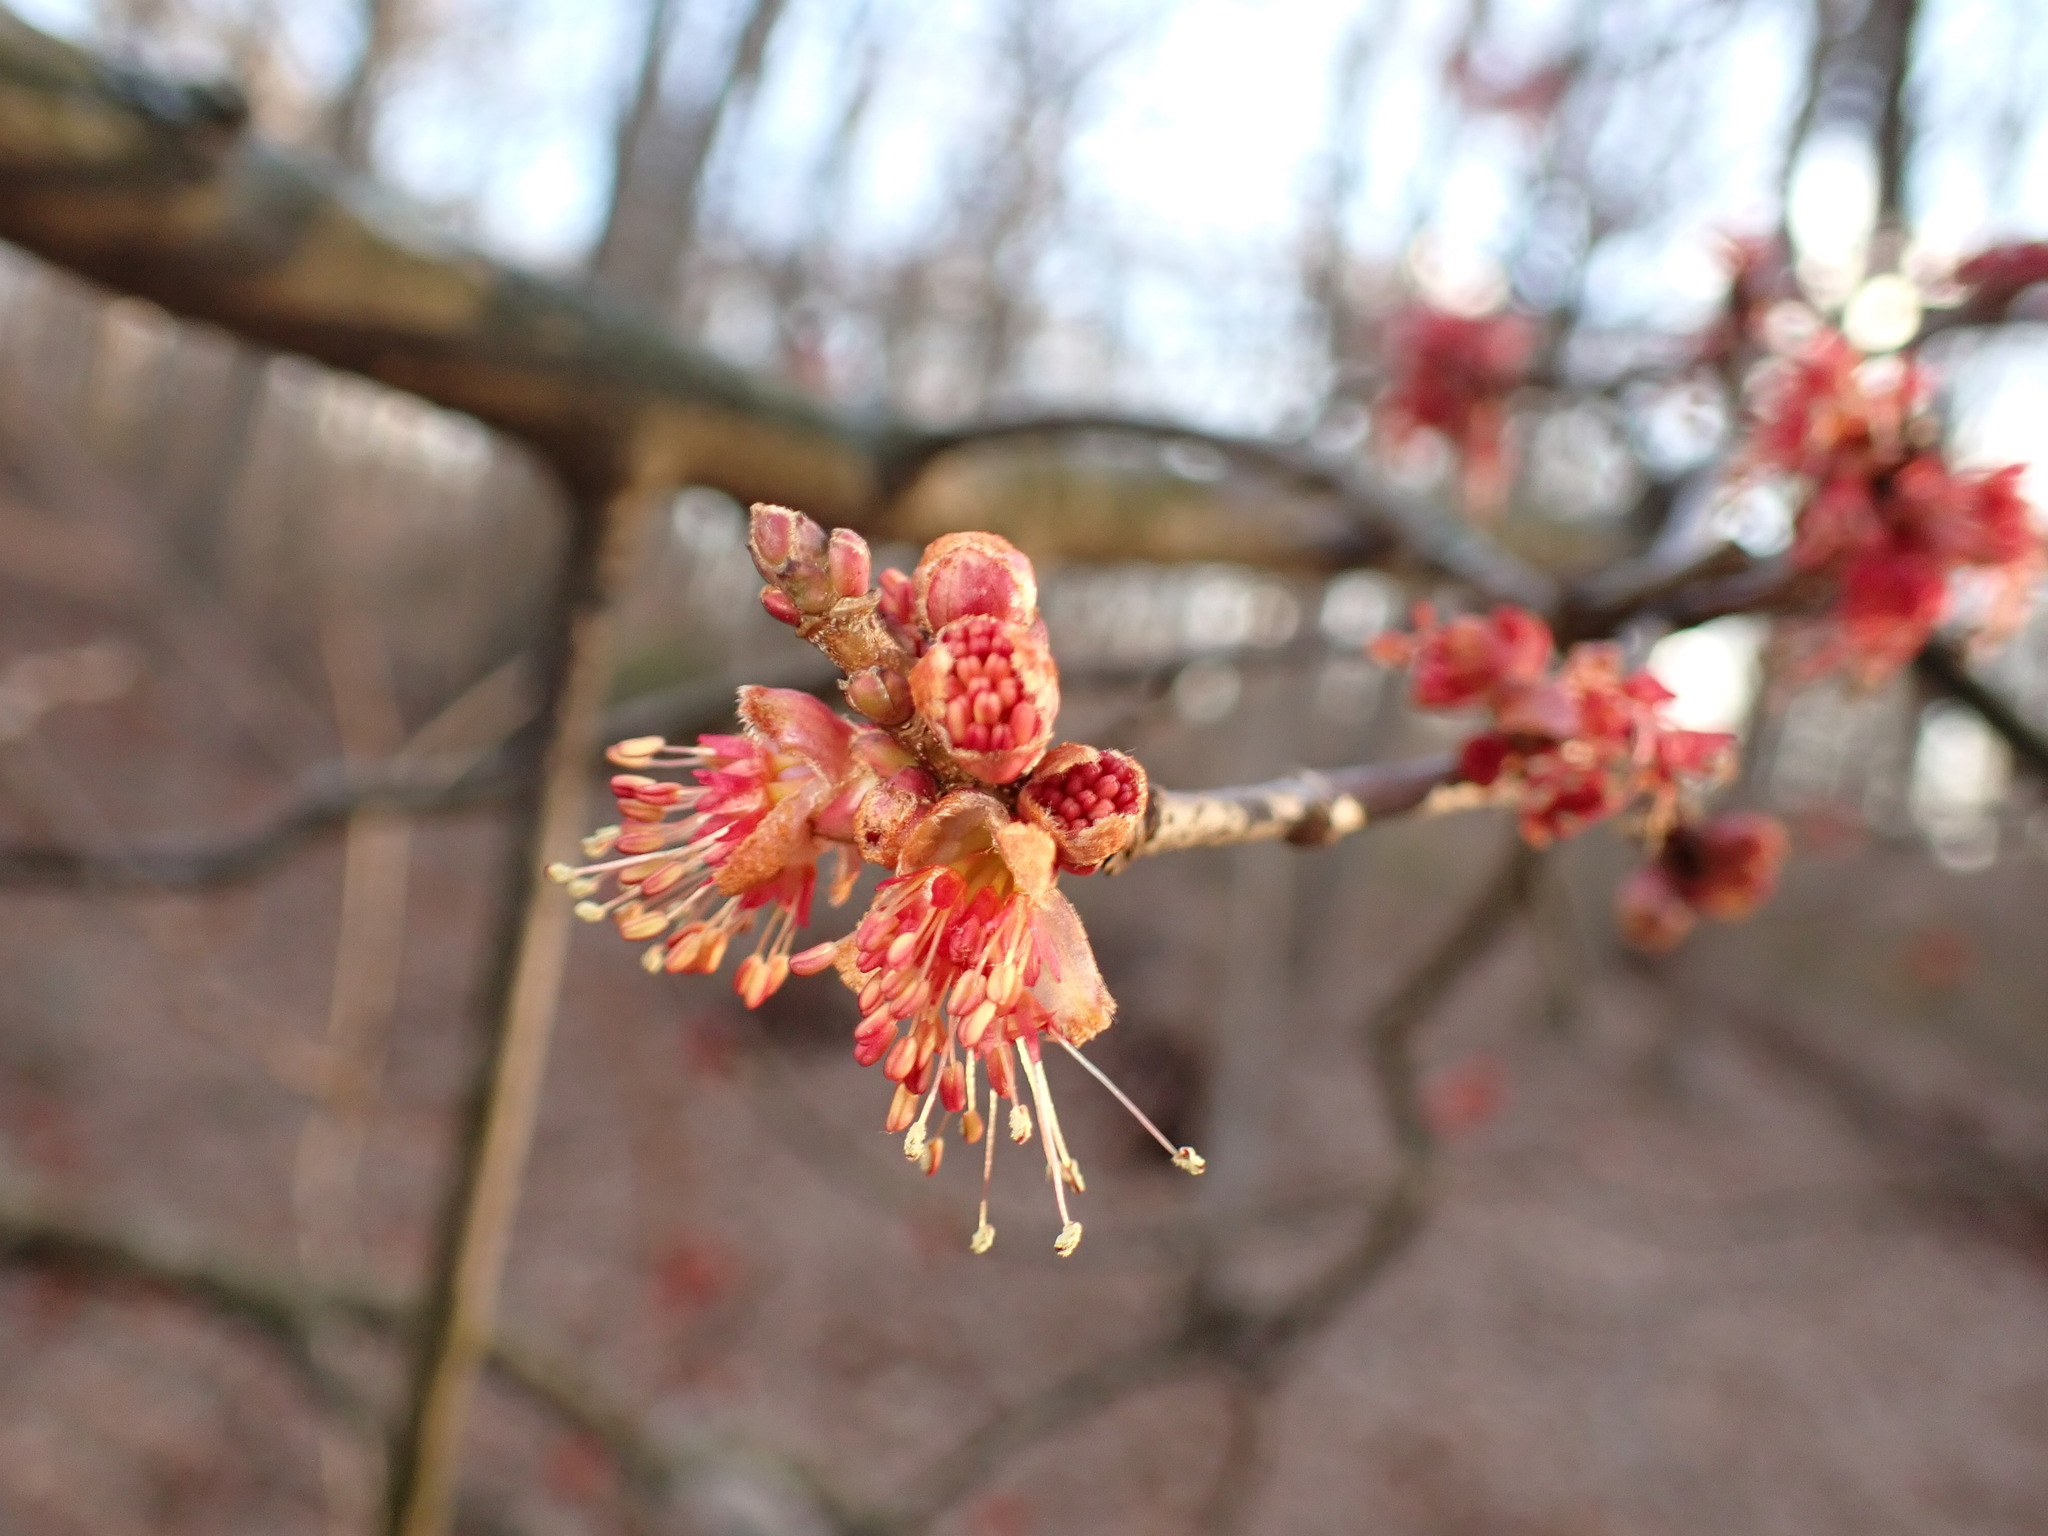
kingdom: Plantae
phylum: Tracheophyta
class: Magnoliopsida
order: Sapindales
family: Sapindaceae
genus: Acer
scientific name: Acer rubrum
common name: Red maple
